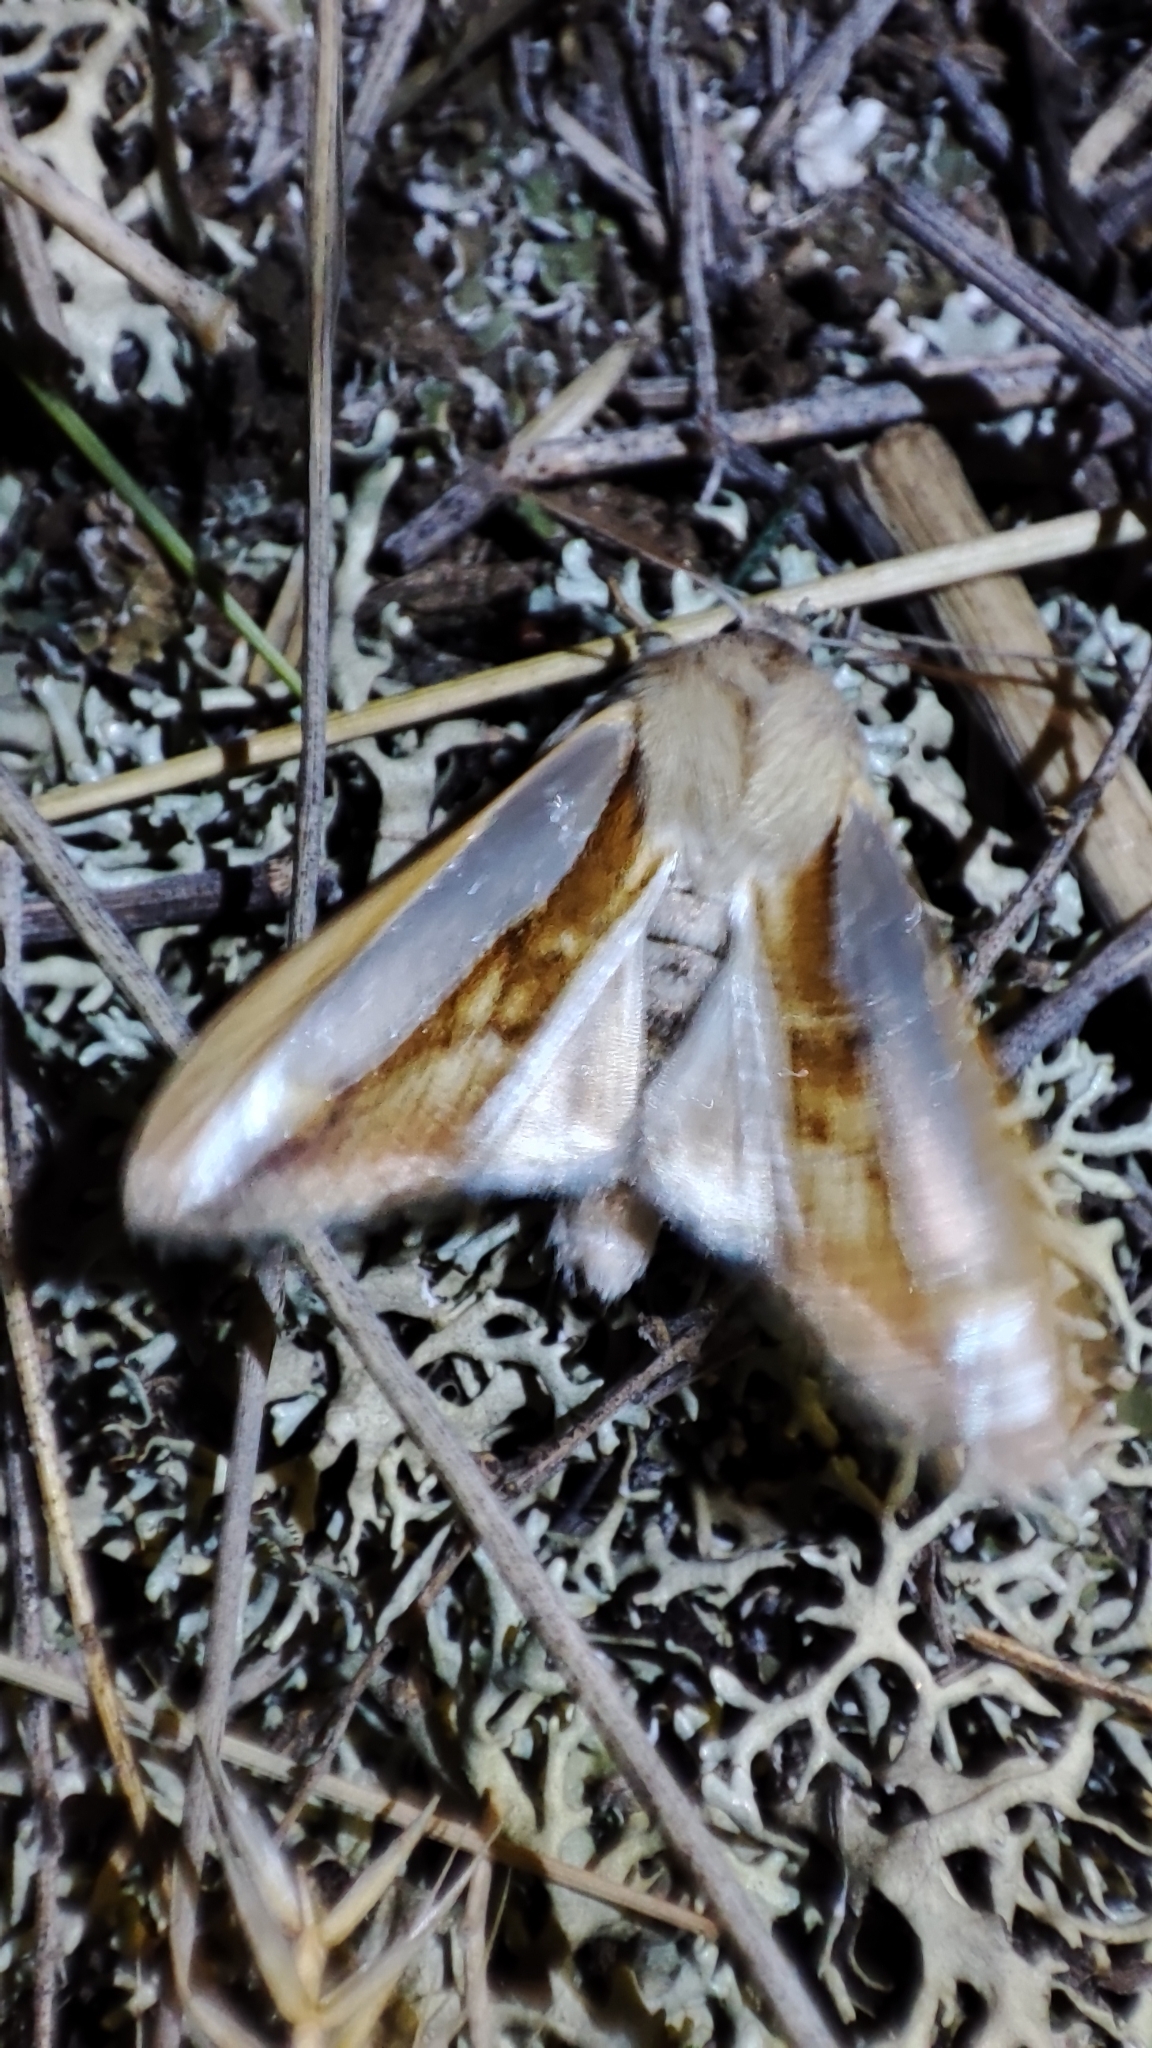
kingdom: Animalia
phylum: Arthropoda
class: Insecta
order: Lepidoptera
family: Noctuidae
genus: Cucullia
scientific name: Cucullia biradiata
